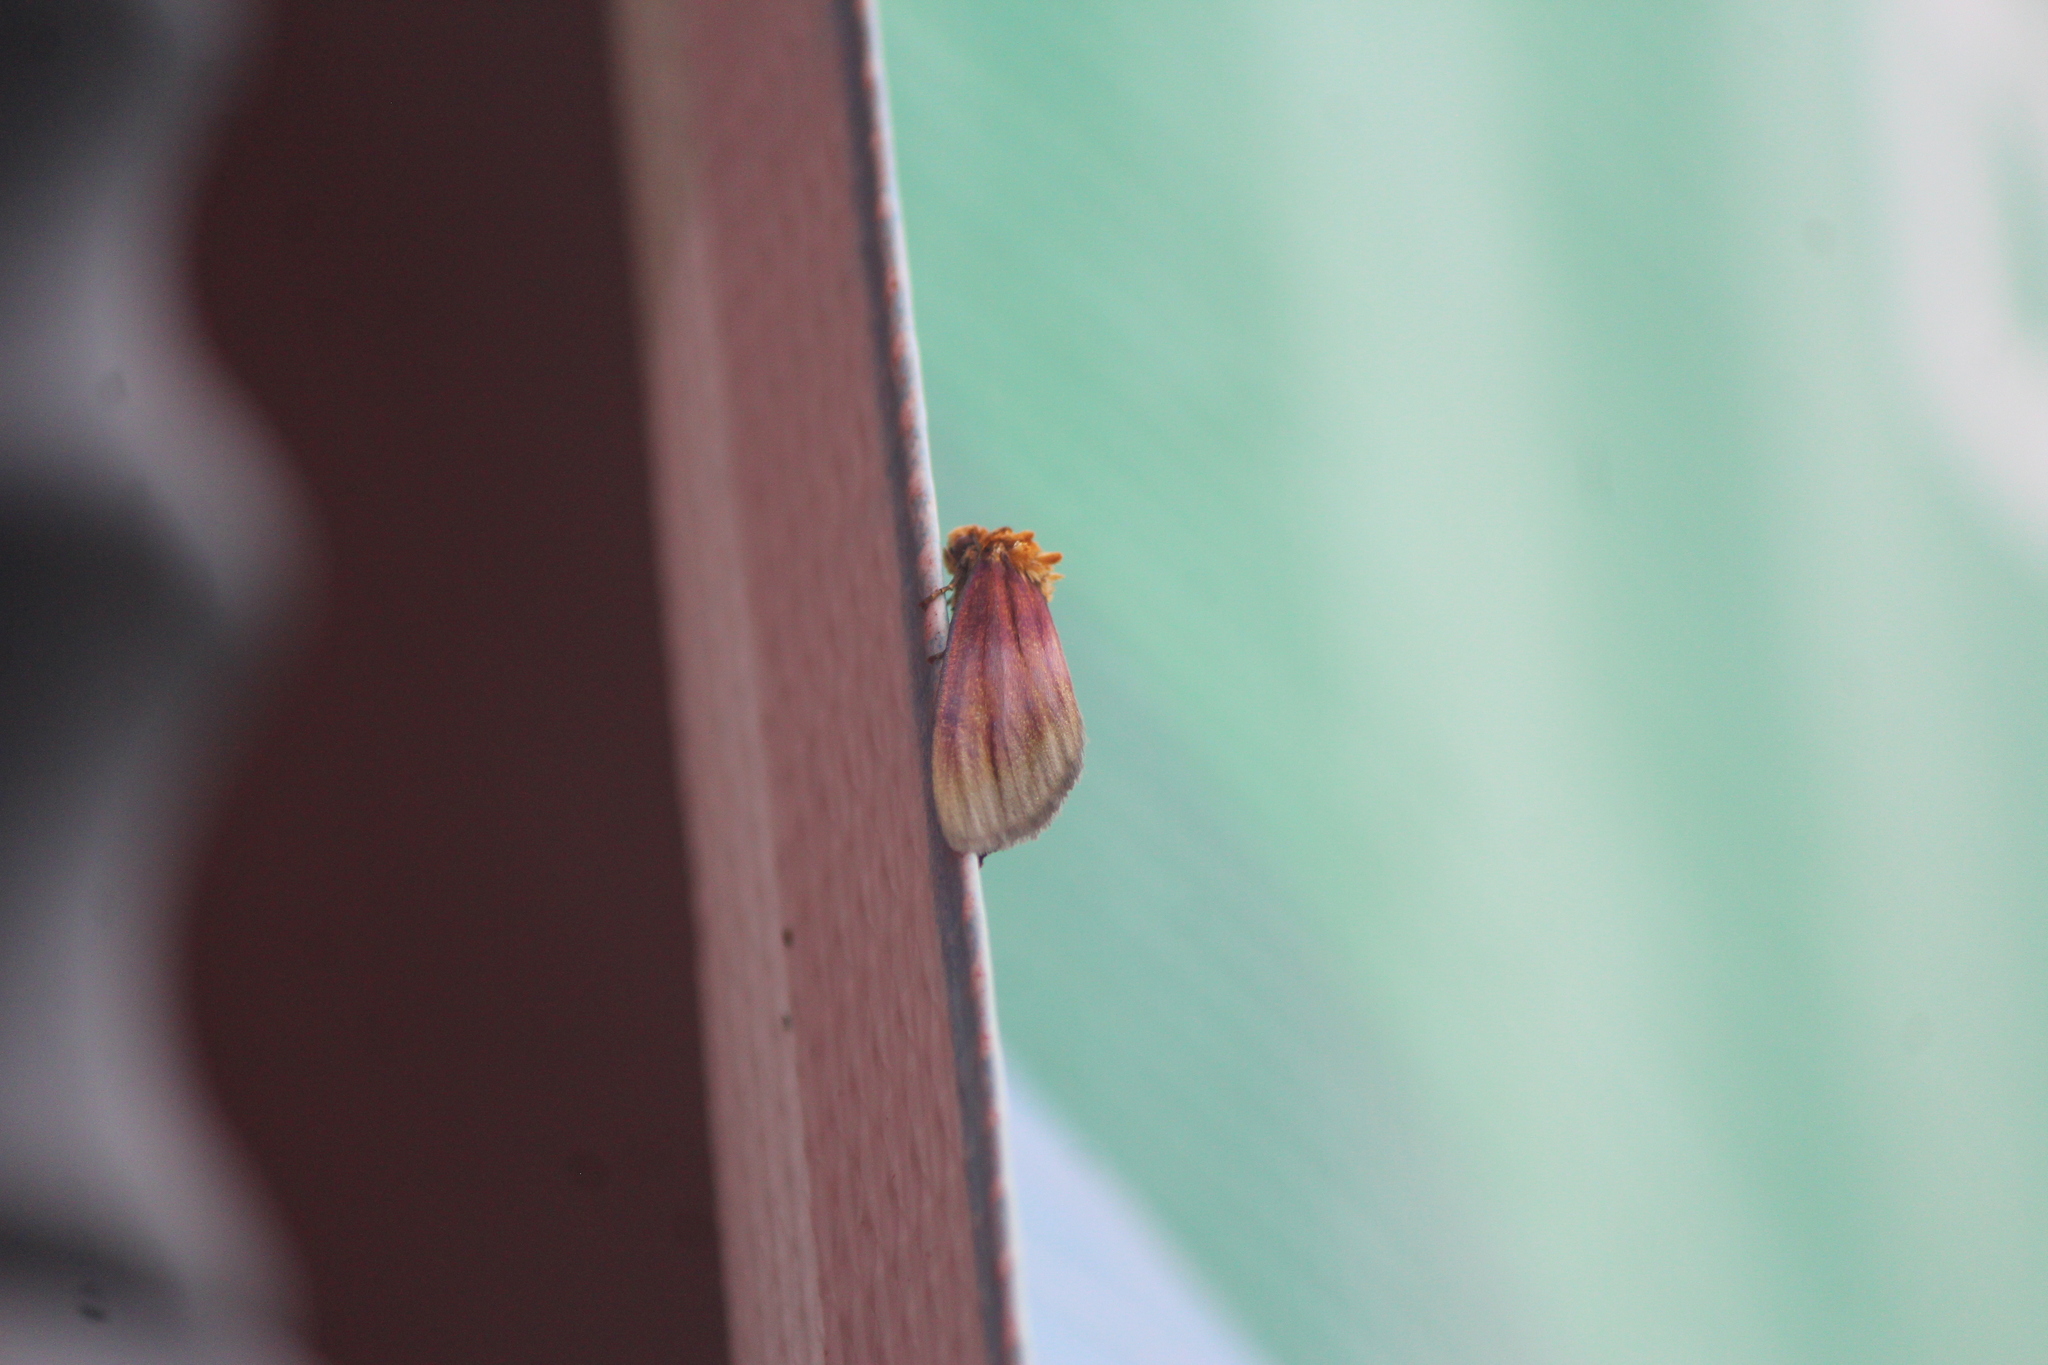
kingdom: Animalia
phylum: Arthropoda
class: Insecta
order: Lepidoptera
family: Noctuidae
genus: Antaplaga
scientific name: Antaplaga plesioglauca
